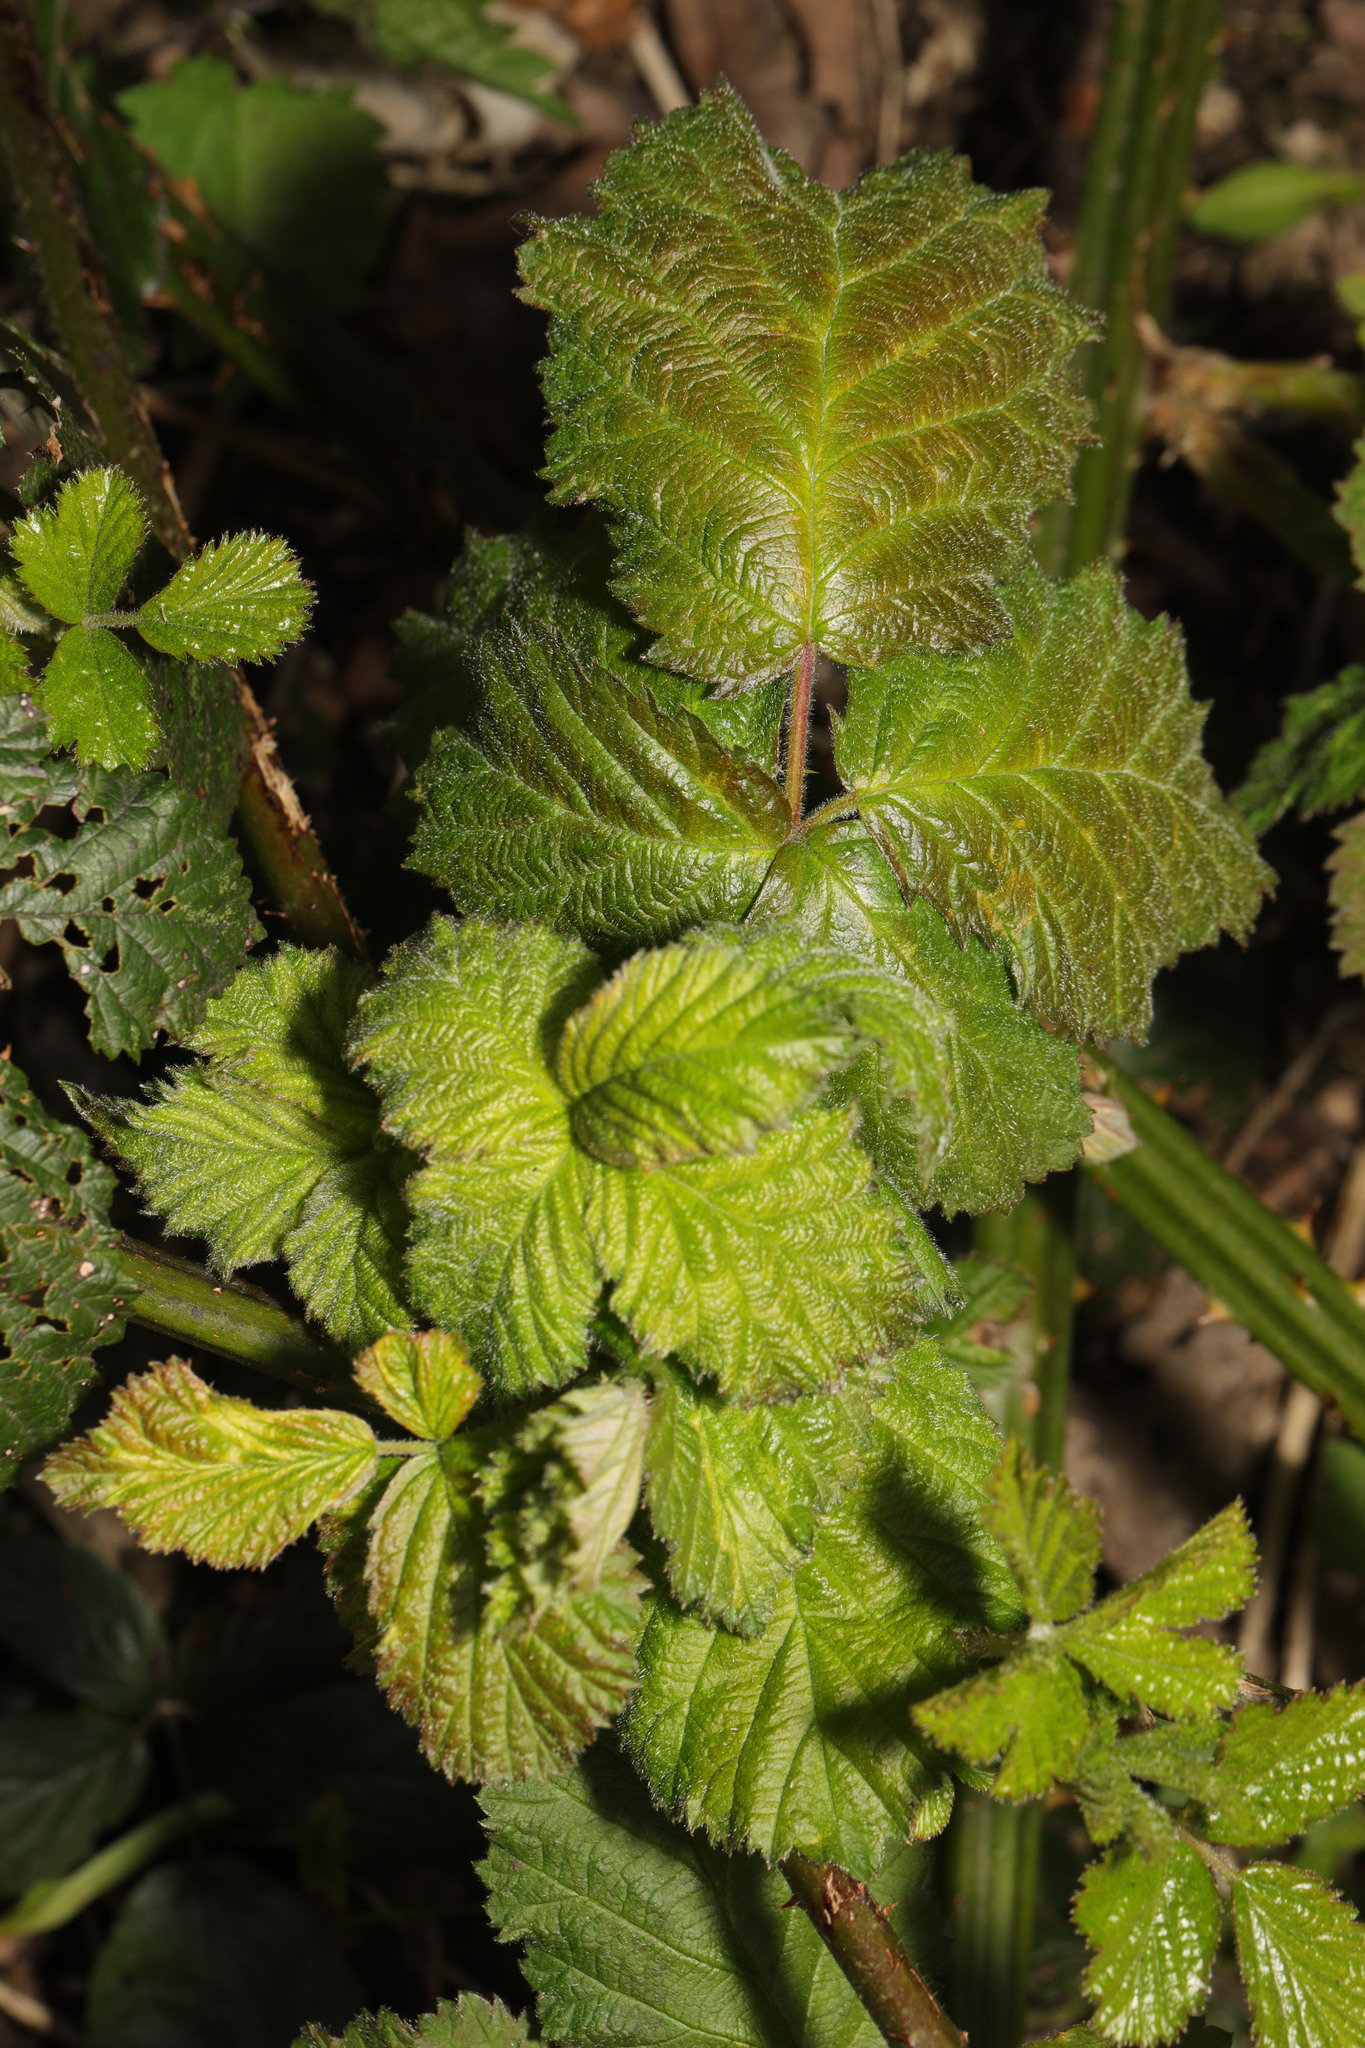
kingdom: Plantae
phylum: Tracheophyta
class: Magnoliopsida
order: Rosales
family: Rosaceae
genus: Rubus
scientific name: Rubus armeniacus
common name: Himalayan blackberry
